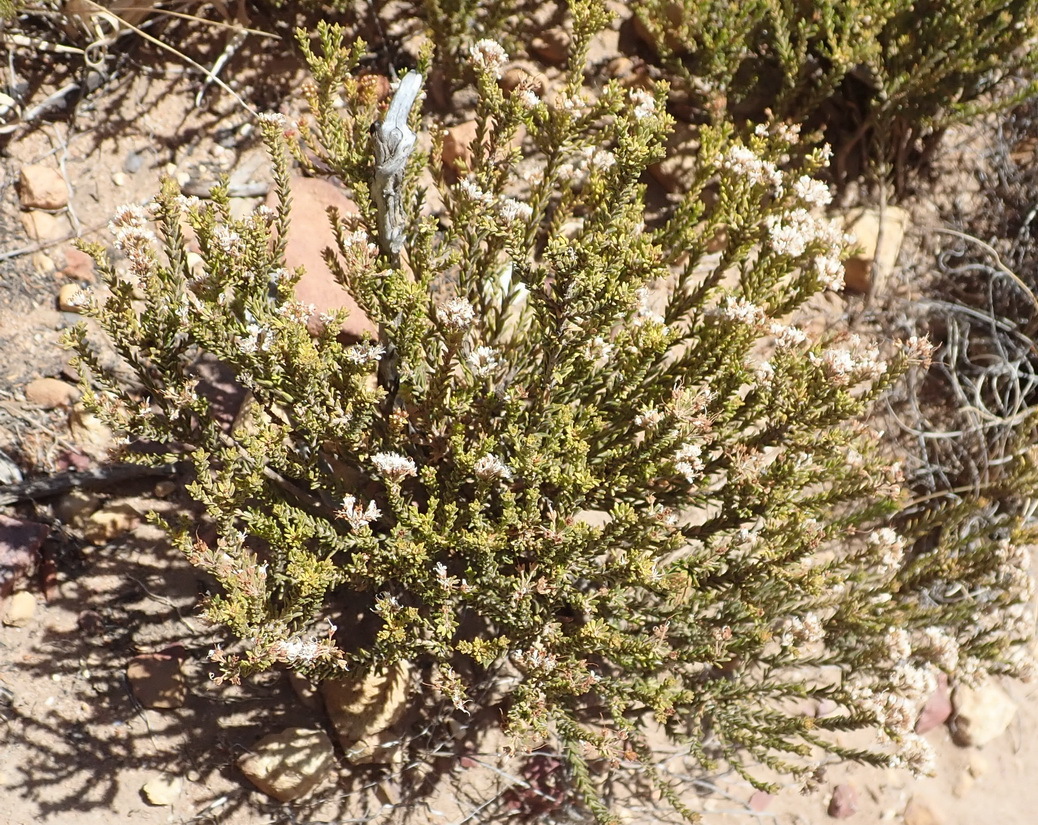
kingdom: Plantae
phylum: Tracheophyta
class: Magnoliopsida
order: Sapindales
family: Rutaceae
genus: Agathosma
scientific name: Agathosma capensis
